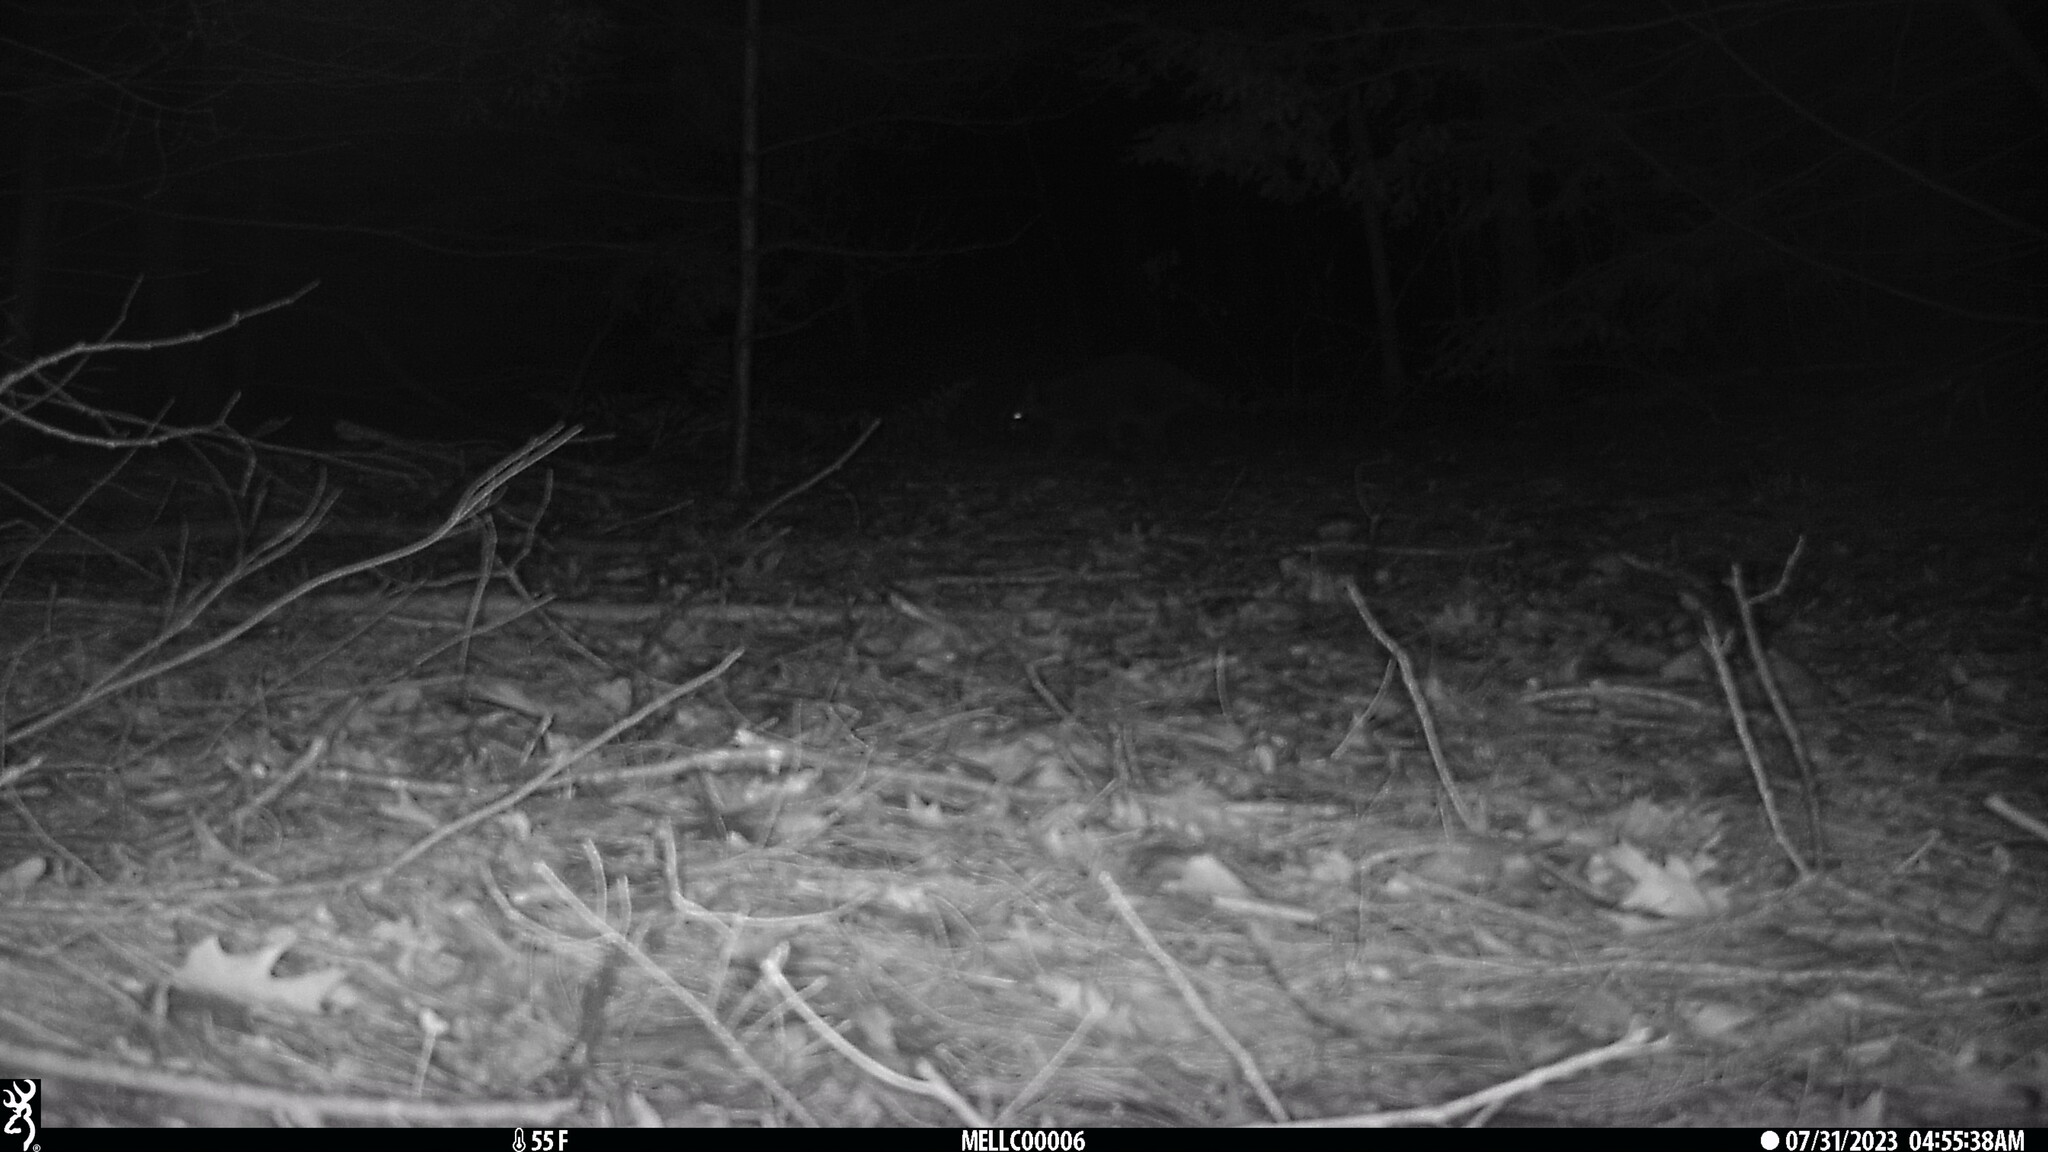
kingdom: Animalia
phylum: Chordata
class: Mammalia
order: Carnivora
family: Procyonidae
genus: Procyon
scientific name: Procyon lotor
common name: Raccoon
